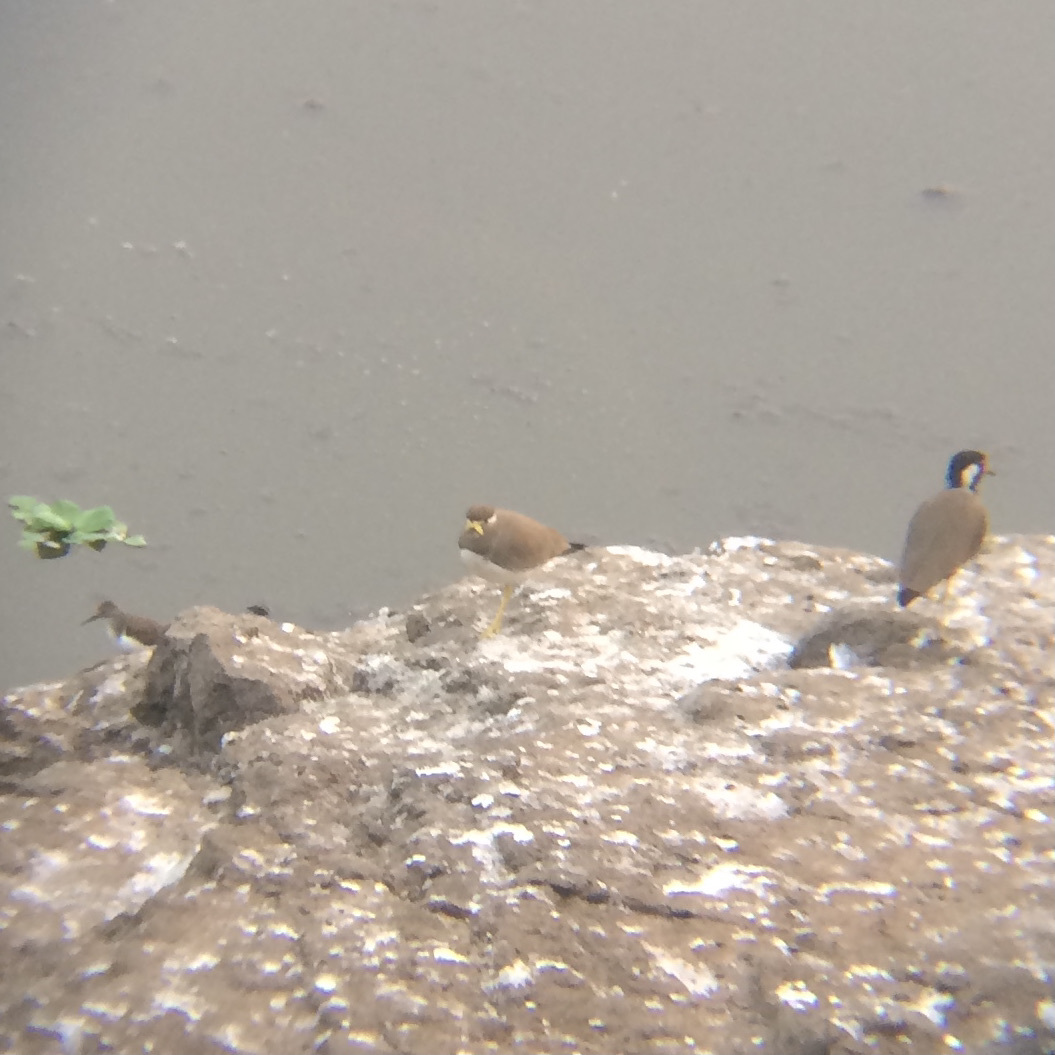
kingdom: Animalia
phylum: Chordata
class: Aves
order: Charadriiformes
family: Charadriidae
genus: Vanellus
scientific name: Vanellus malabaricus
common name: Yellow-wattled lapwing
